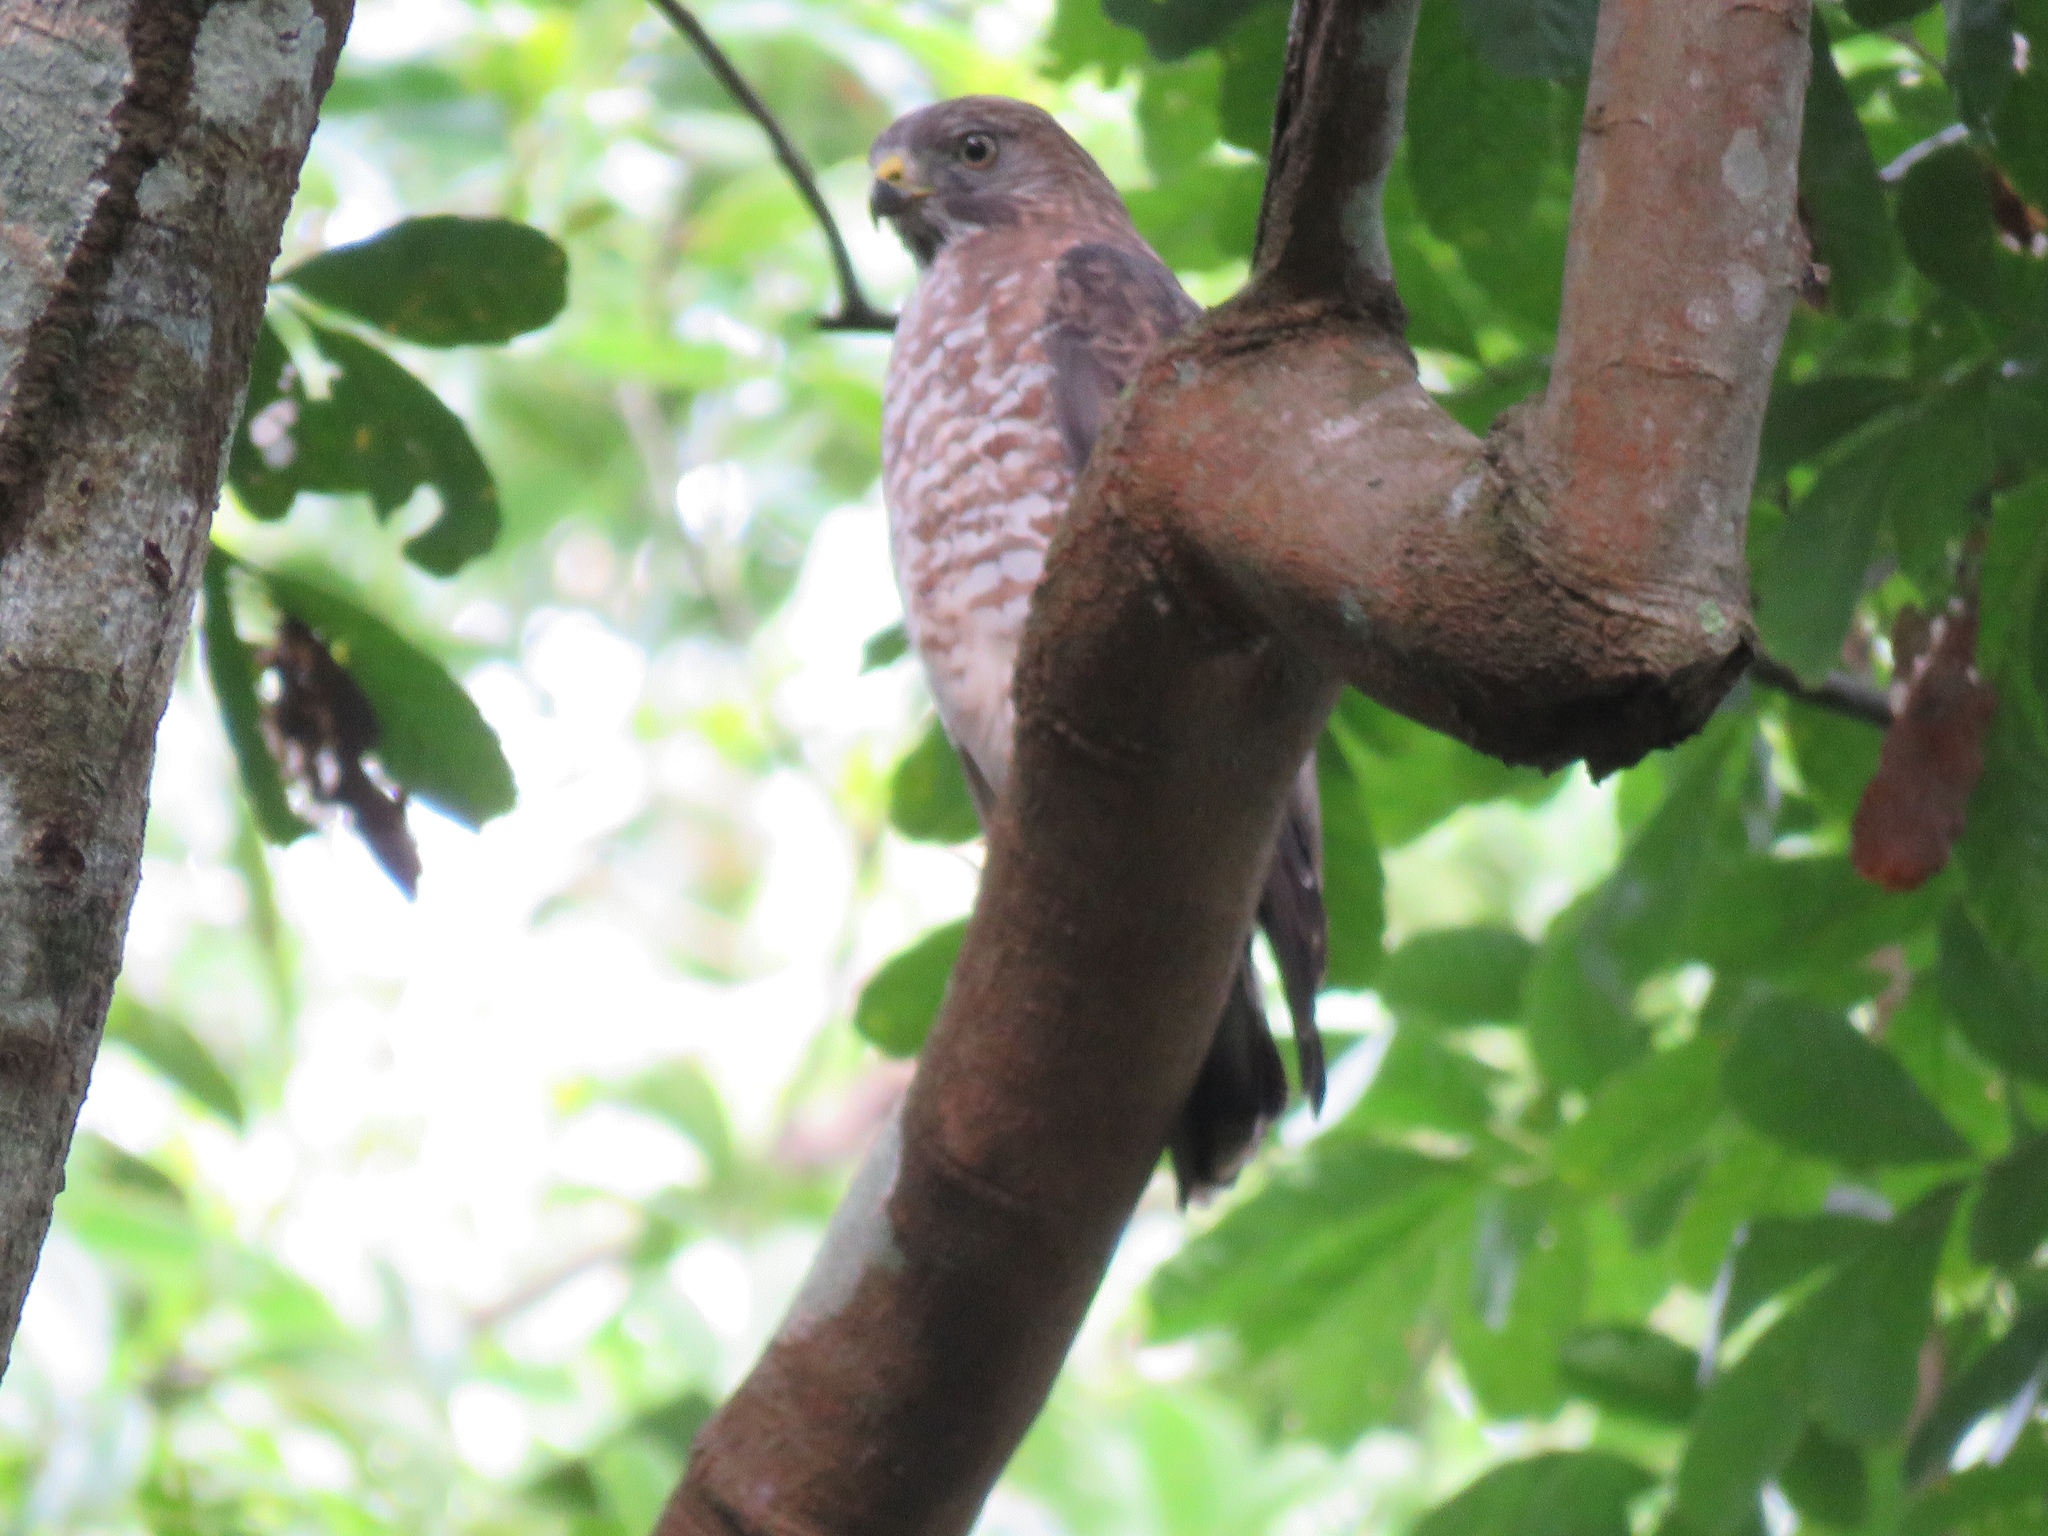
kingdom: Animalia
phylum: Chordata
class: Aves
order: Accipitriformes
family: Accipitridae
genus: Buteo
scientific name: Buteo platypterus
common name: Broad-winged hawk
